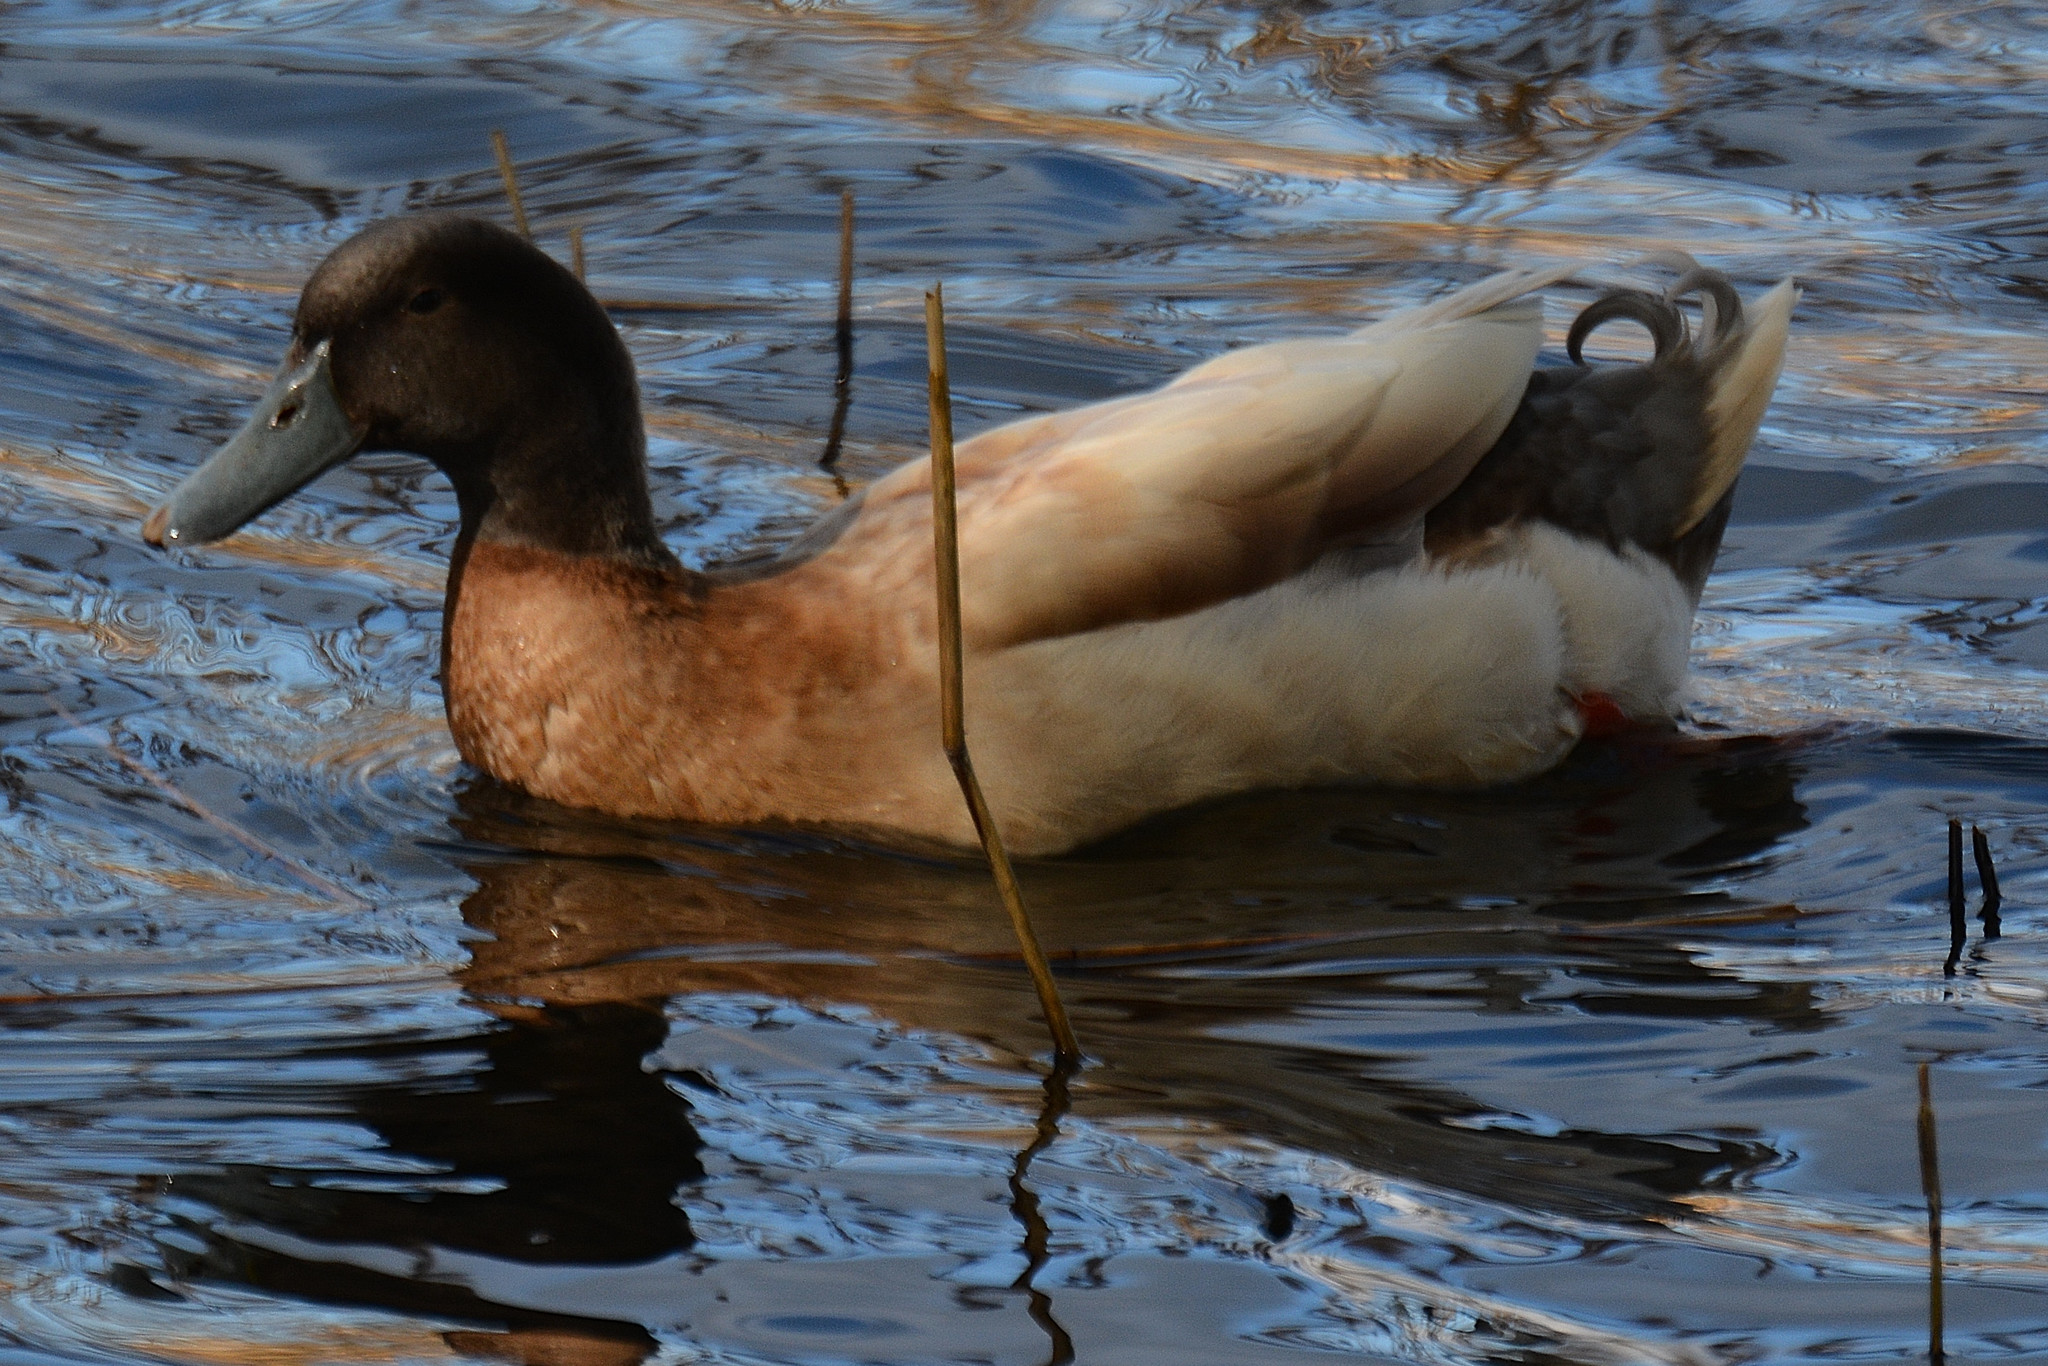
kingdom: Animalia
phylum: Chordata
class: Aves
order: Anseriformes
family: Anatidae
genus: Anas
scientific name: Anas platyrhynchos
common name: Mallard
